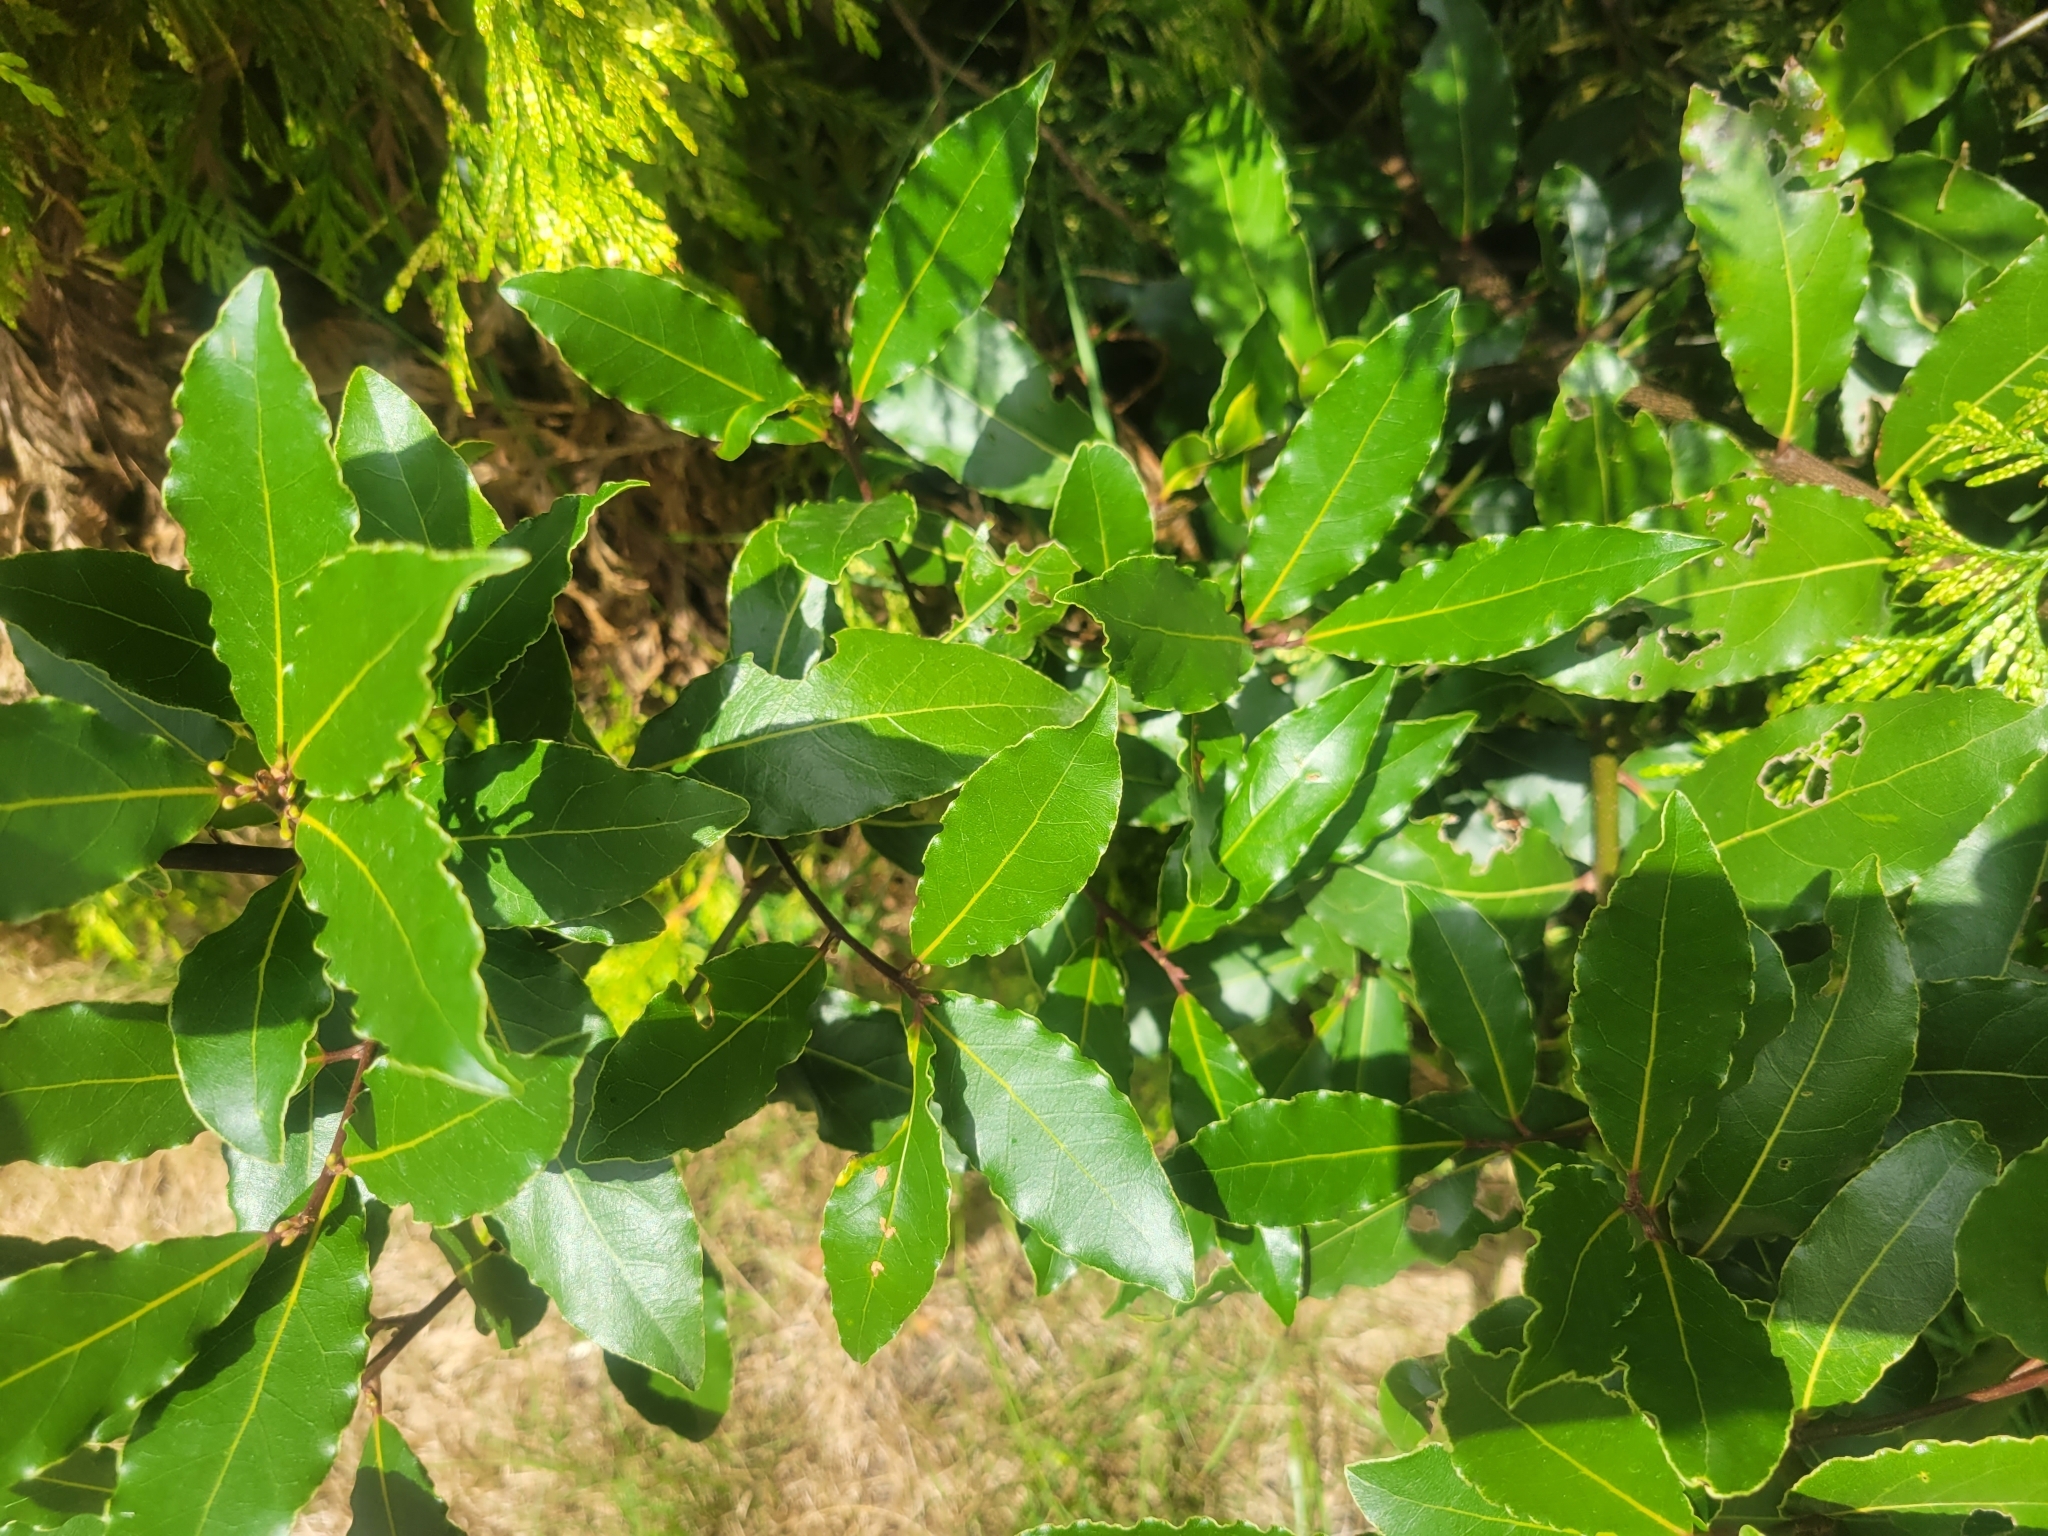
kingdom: Plantae
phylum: Tracheophyta
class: Magnoliopsida
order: Laurales
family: Lauraceae
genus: Laurus
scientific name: Laurus nobilis
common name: Bay
